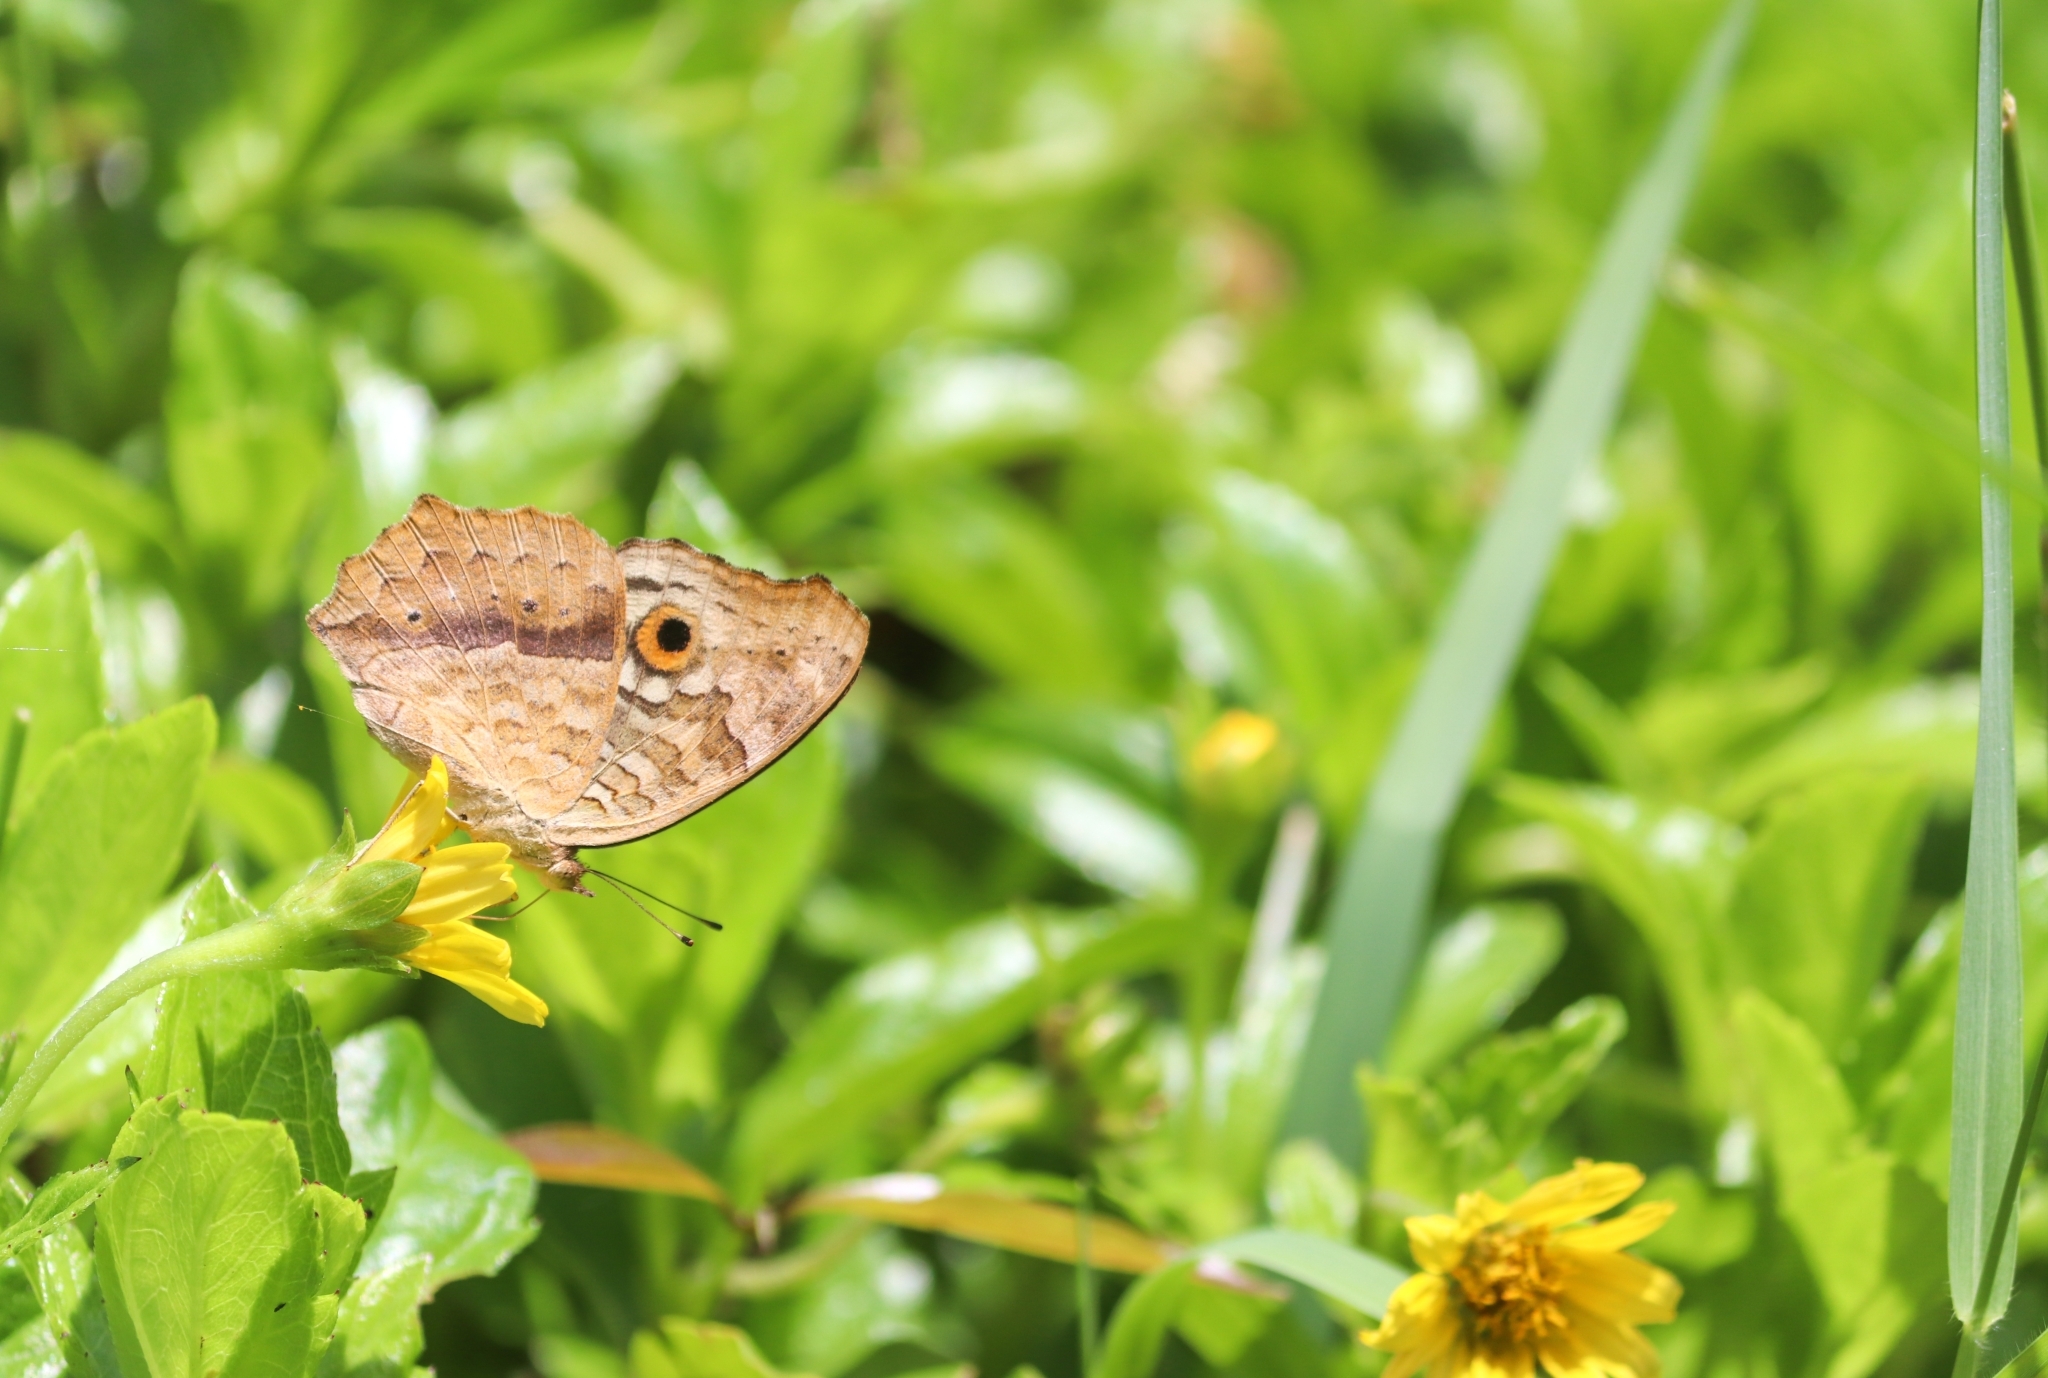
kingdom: Animalia
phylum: Arthropoda
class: Insecta
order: Lepidoptera
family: Nymphalidae
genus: Junonia
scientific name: Junonia lemonias
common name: Lemon pansy
